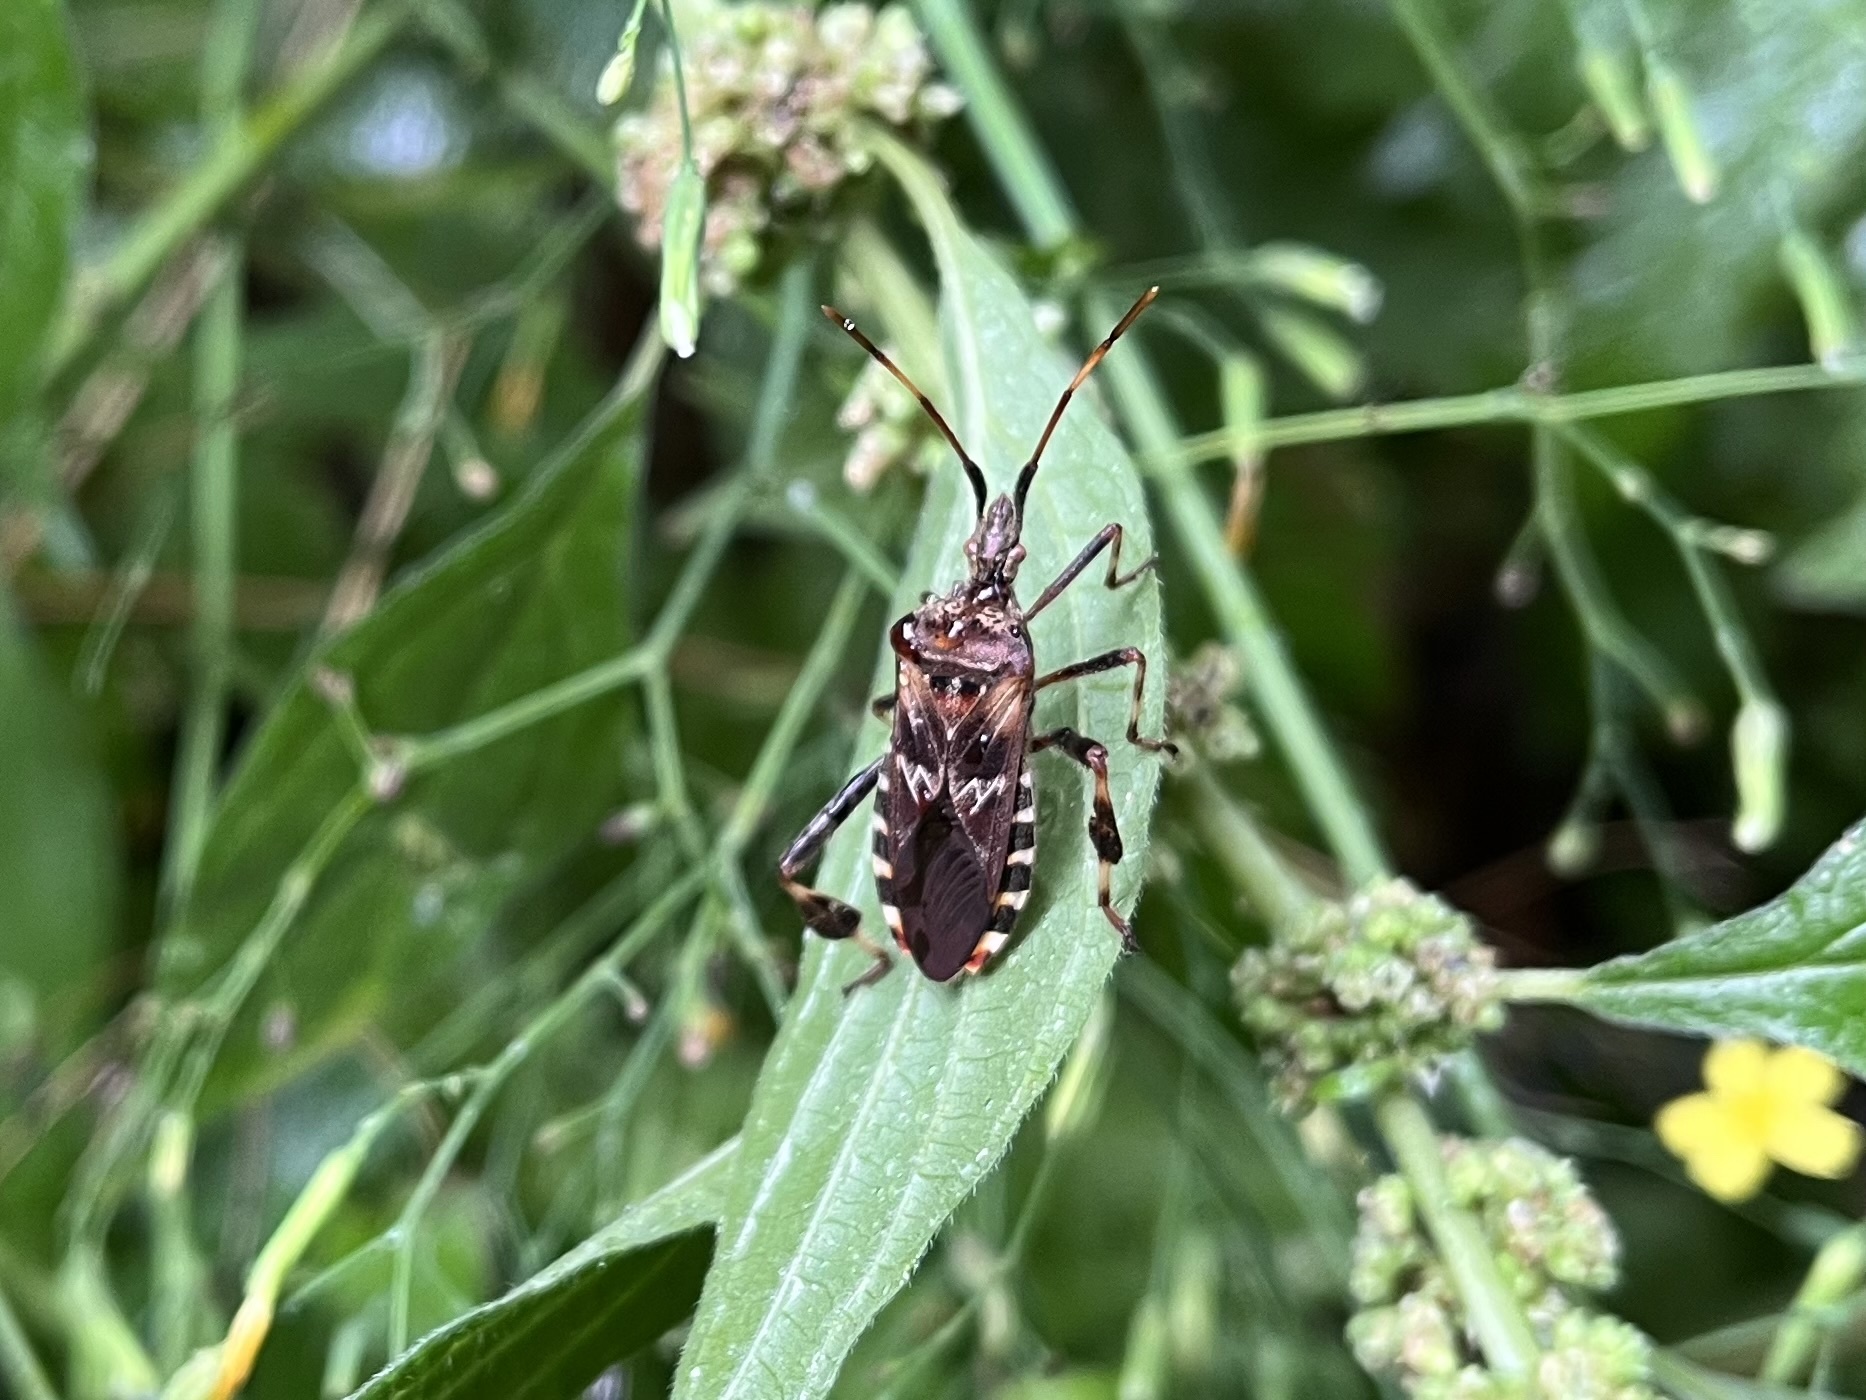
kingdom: Animalia
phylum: Arthropoda
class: Insecta
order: Hemiptera
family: Coreidae
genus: Leptoglossus
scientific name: Leptoglossus occidentalis
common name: Western conifer-seed bug
